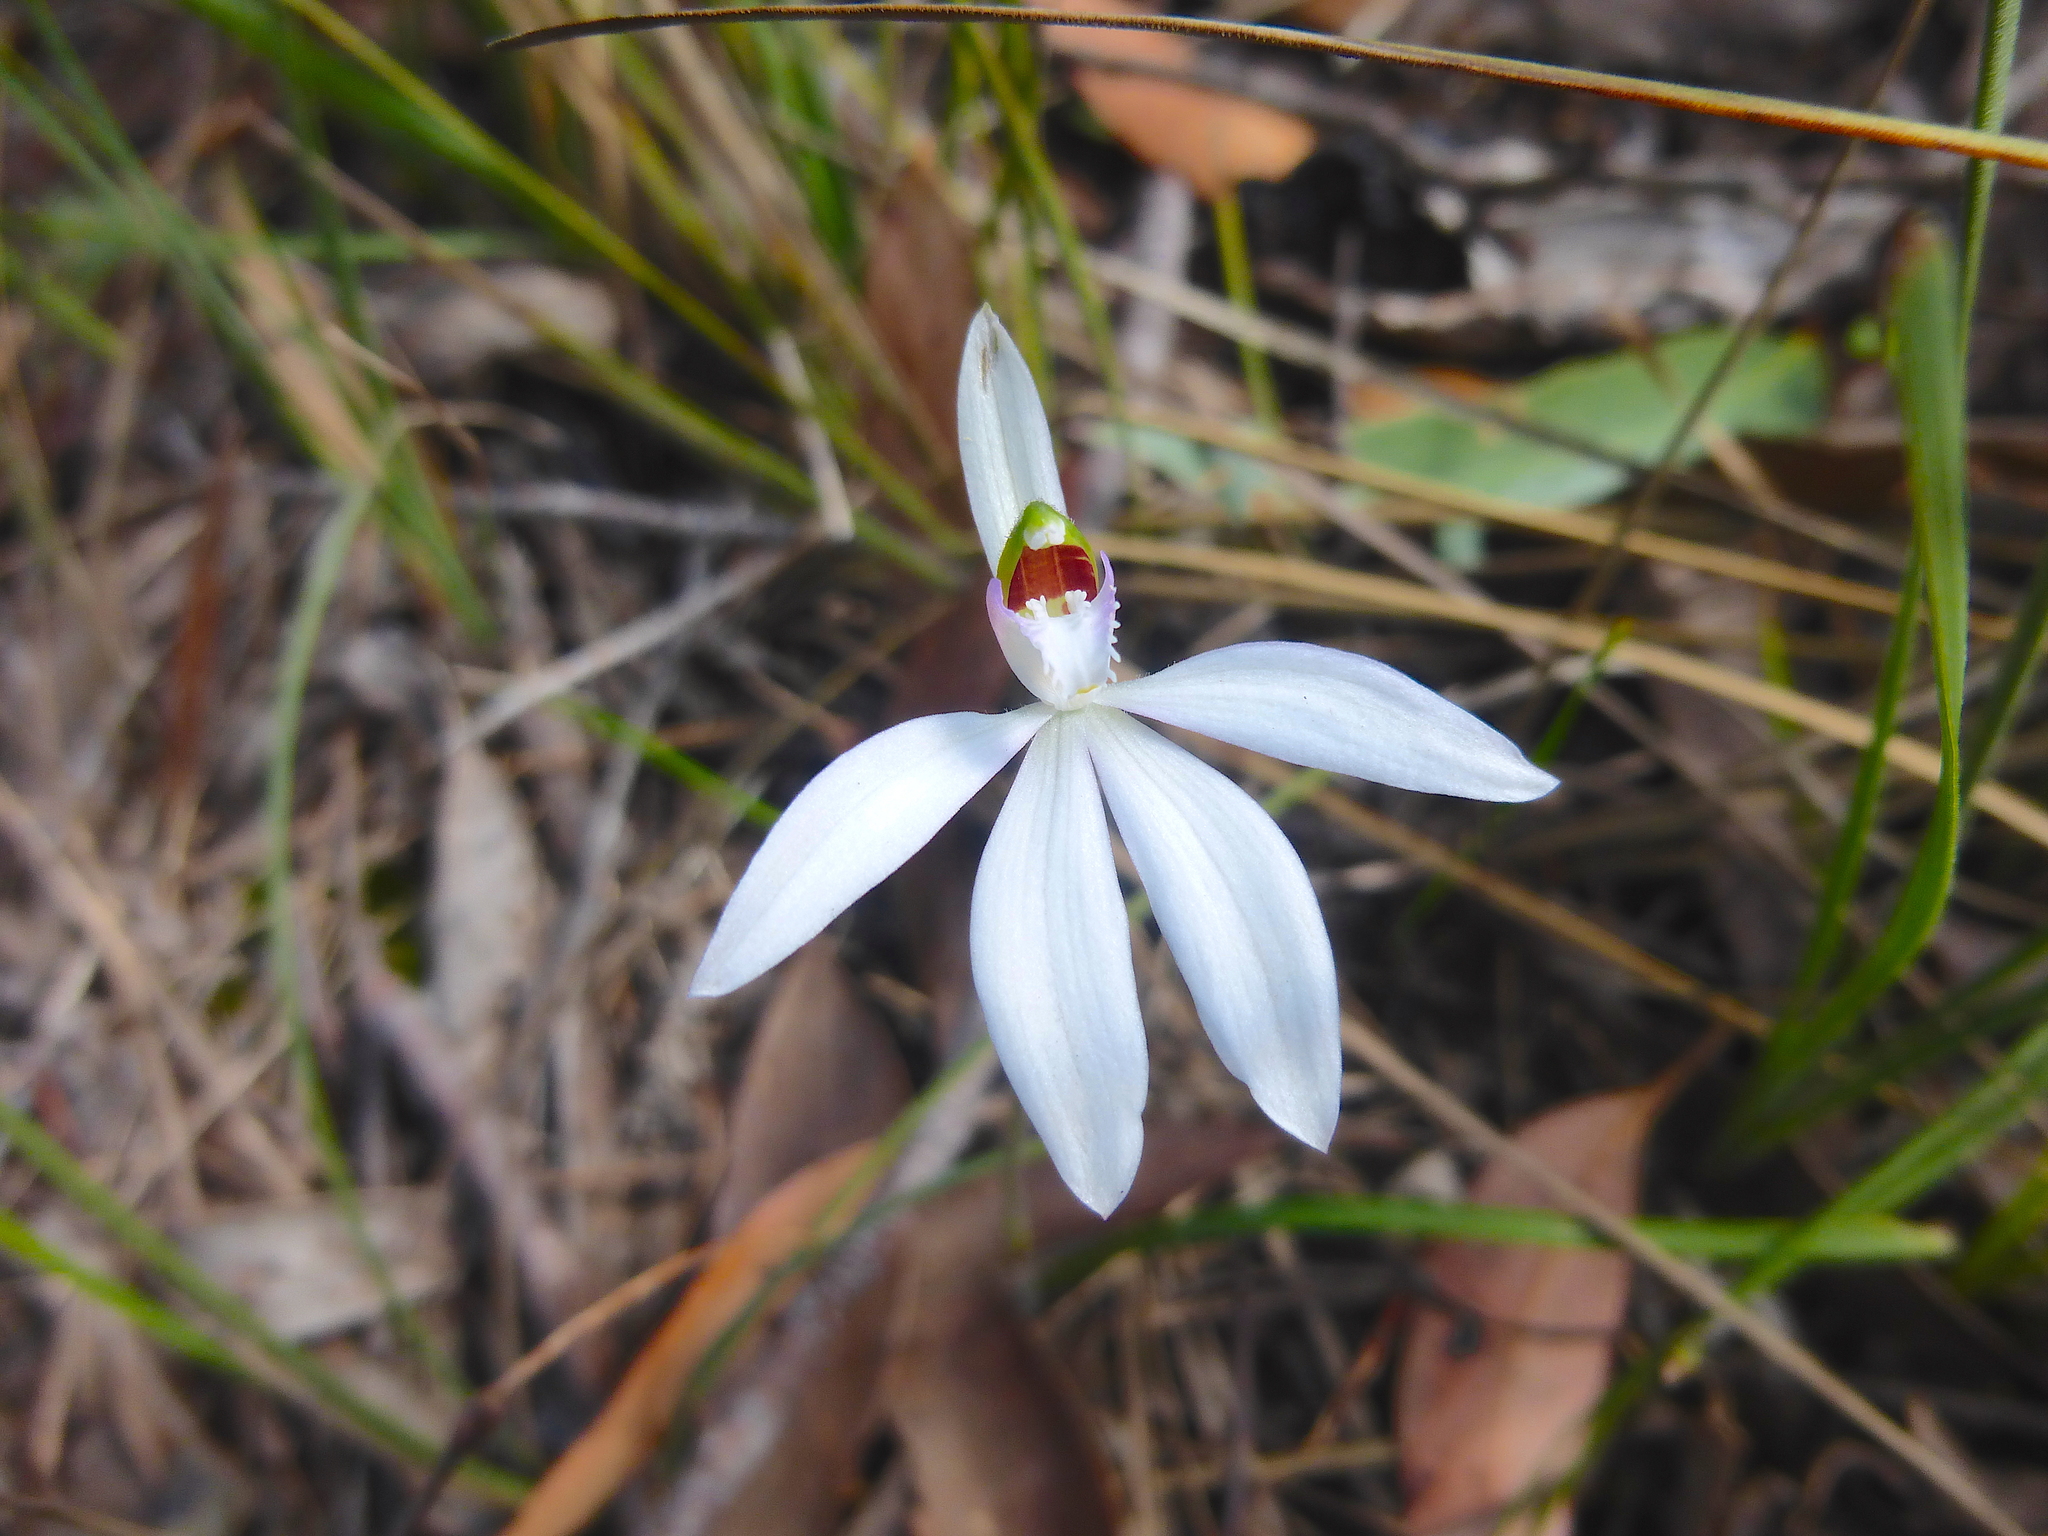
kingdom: Plantae
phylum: Tracheophyta
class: Liliopsida
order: Asparagales
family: Orchidaceae
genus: Caladenia
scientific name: Caladenia catenata
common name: White caladenia
